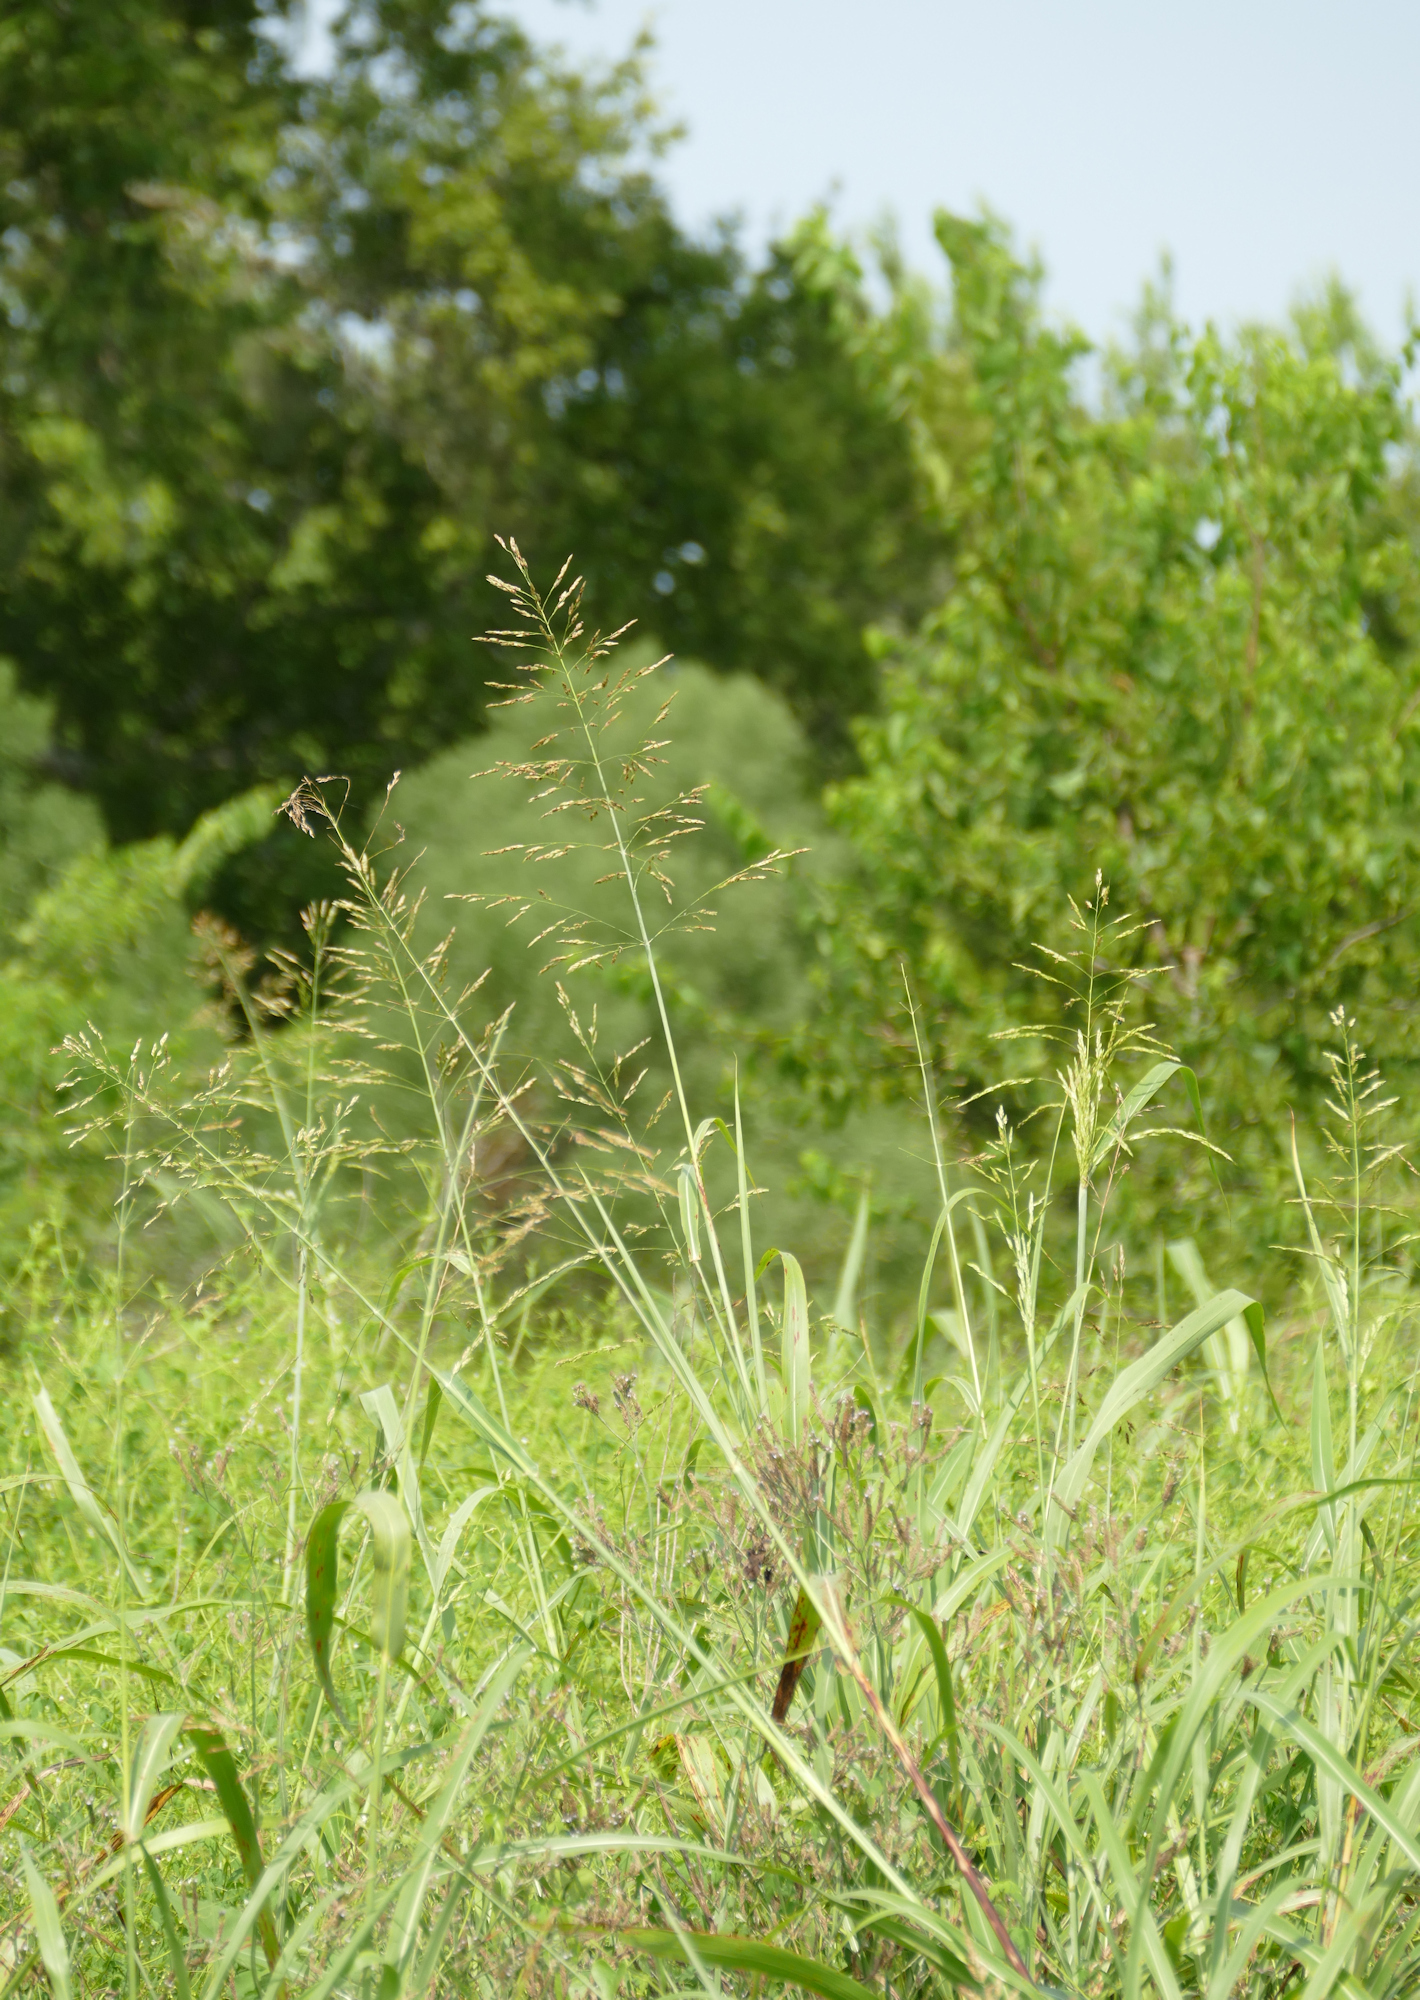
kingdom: Plantae
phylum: Tracheophyta
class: Liliopsida
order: Poales
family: Poaceae
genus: Sorghum
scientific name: Sorghum halepense
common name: Johnson-grass
